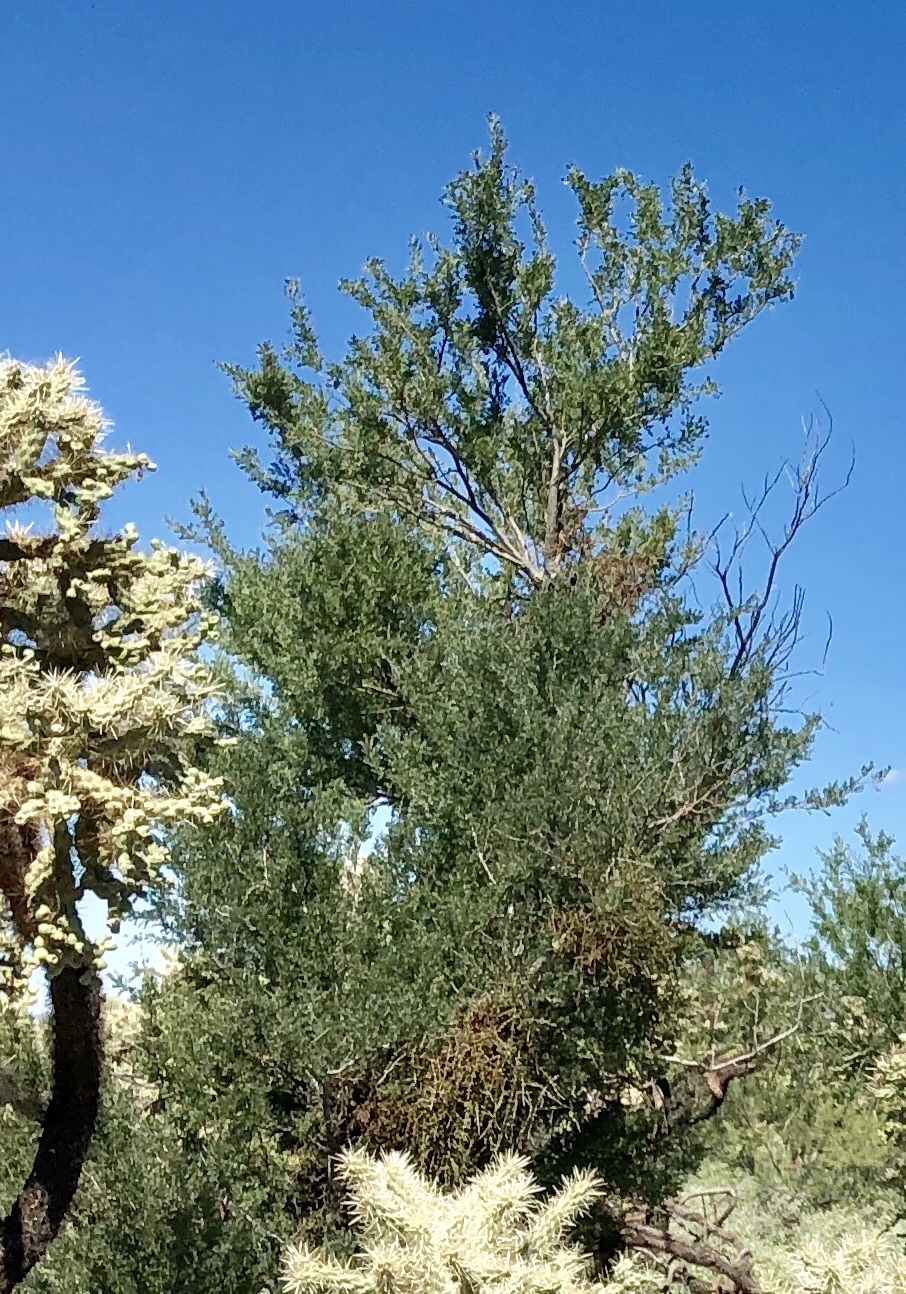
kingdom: Plantae
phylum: Tracheophyta
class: Magnoliopsida
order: Fabales
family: Fabaceae
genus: Olneya
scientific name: Olneya tesota
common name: Desert ironwood
